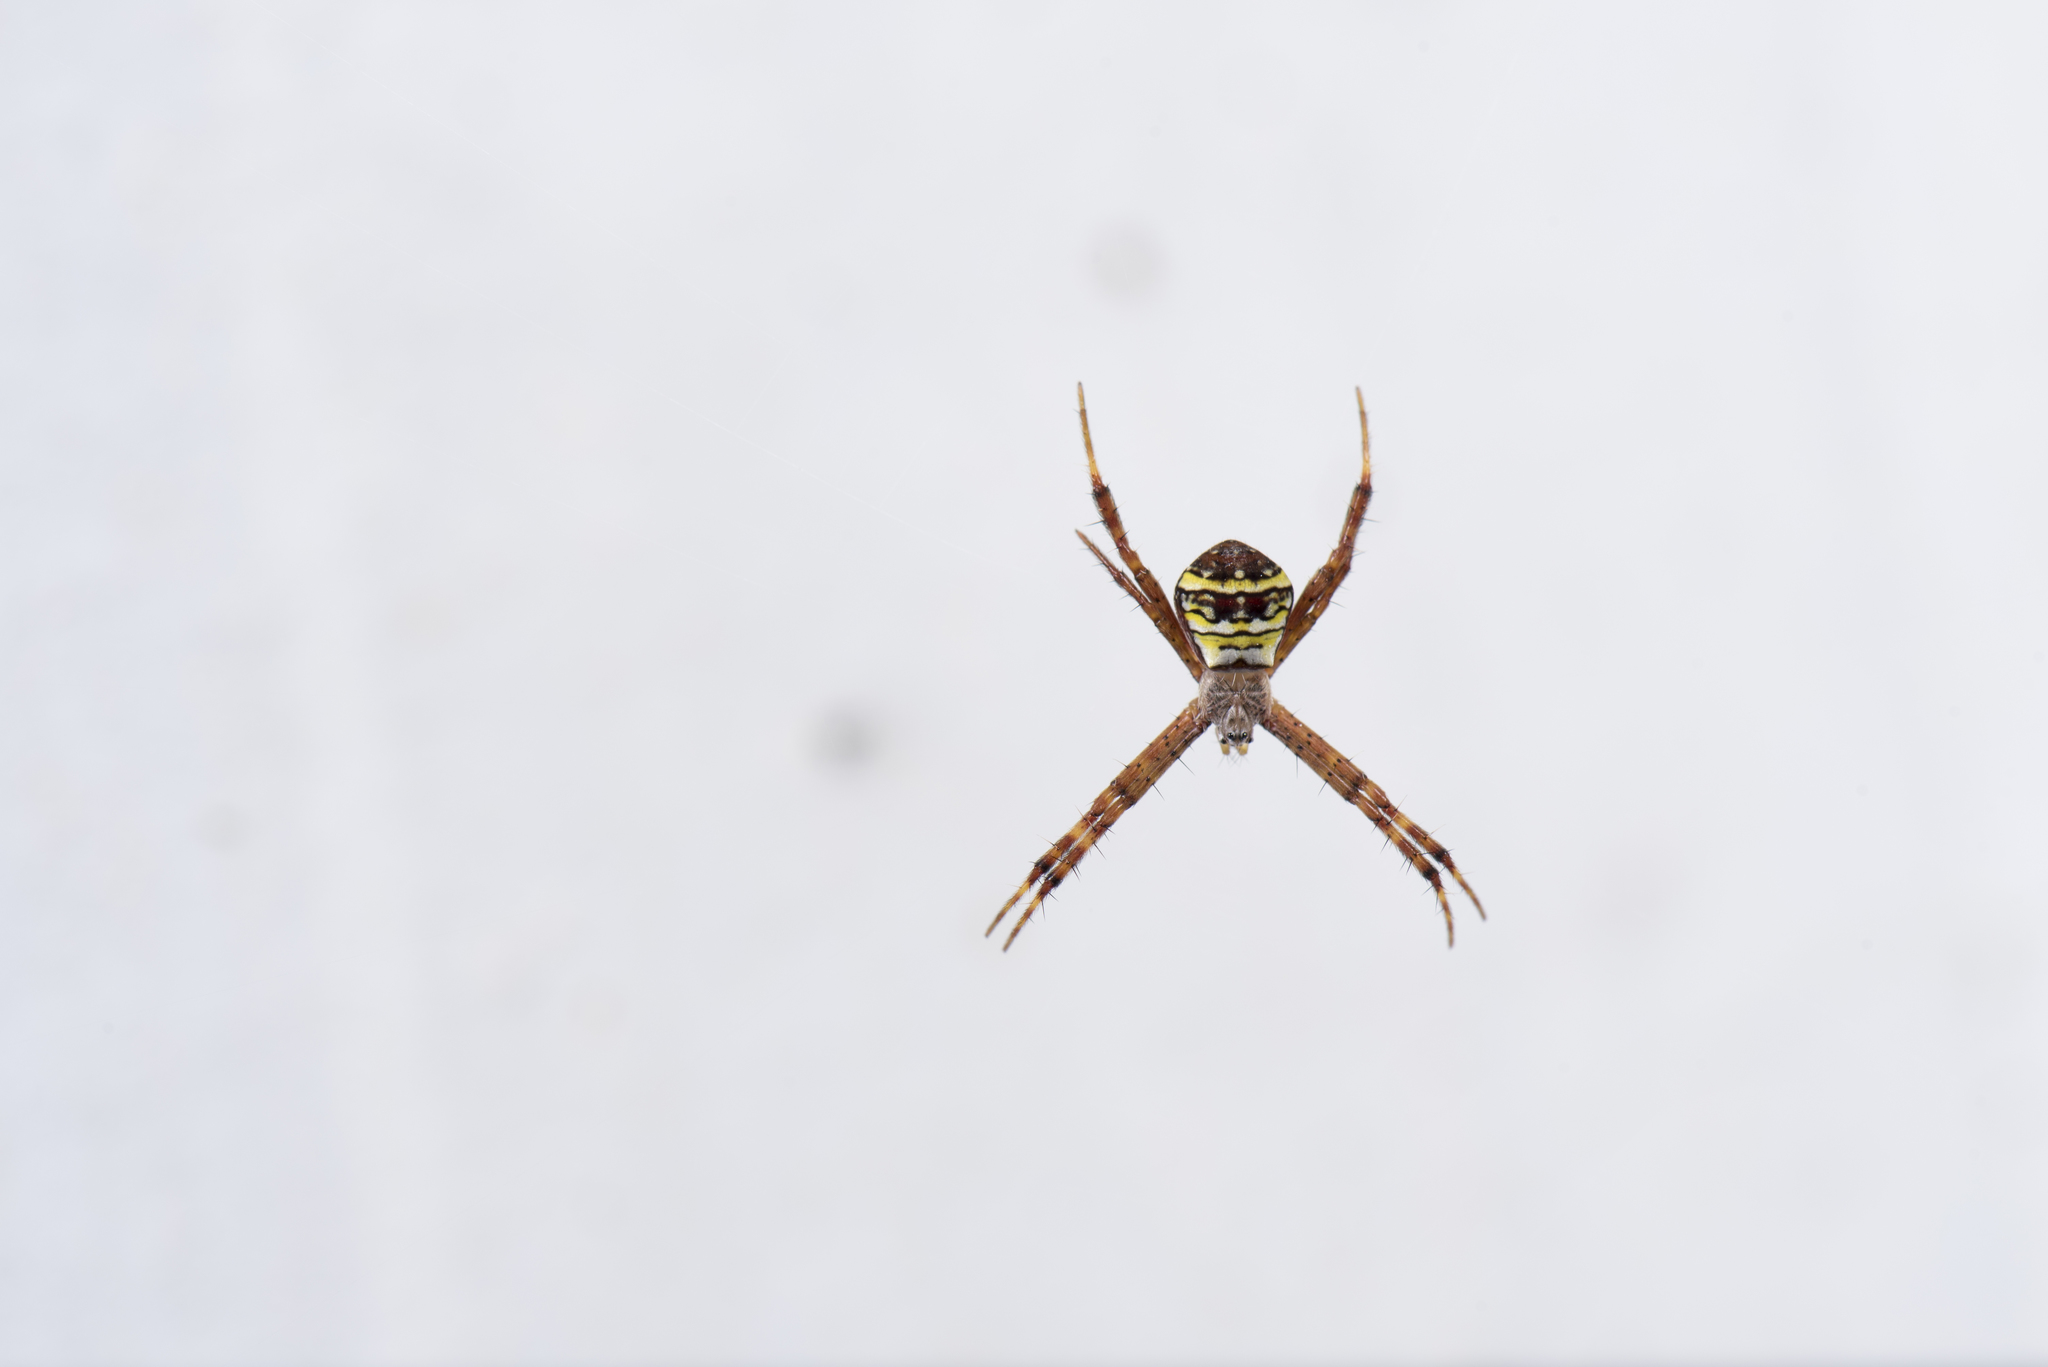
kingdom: Animalia
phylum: Arthropoda
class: Arachnida
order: Araneae
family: Araneidae
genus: Argiope
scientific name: Argiope aetheroides
